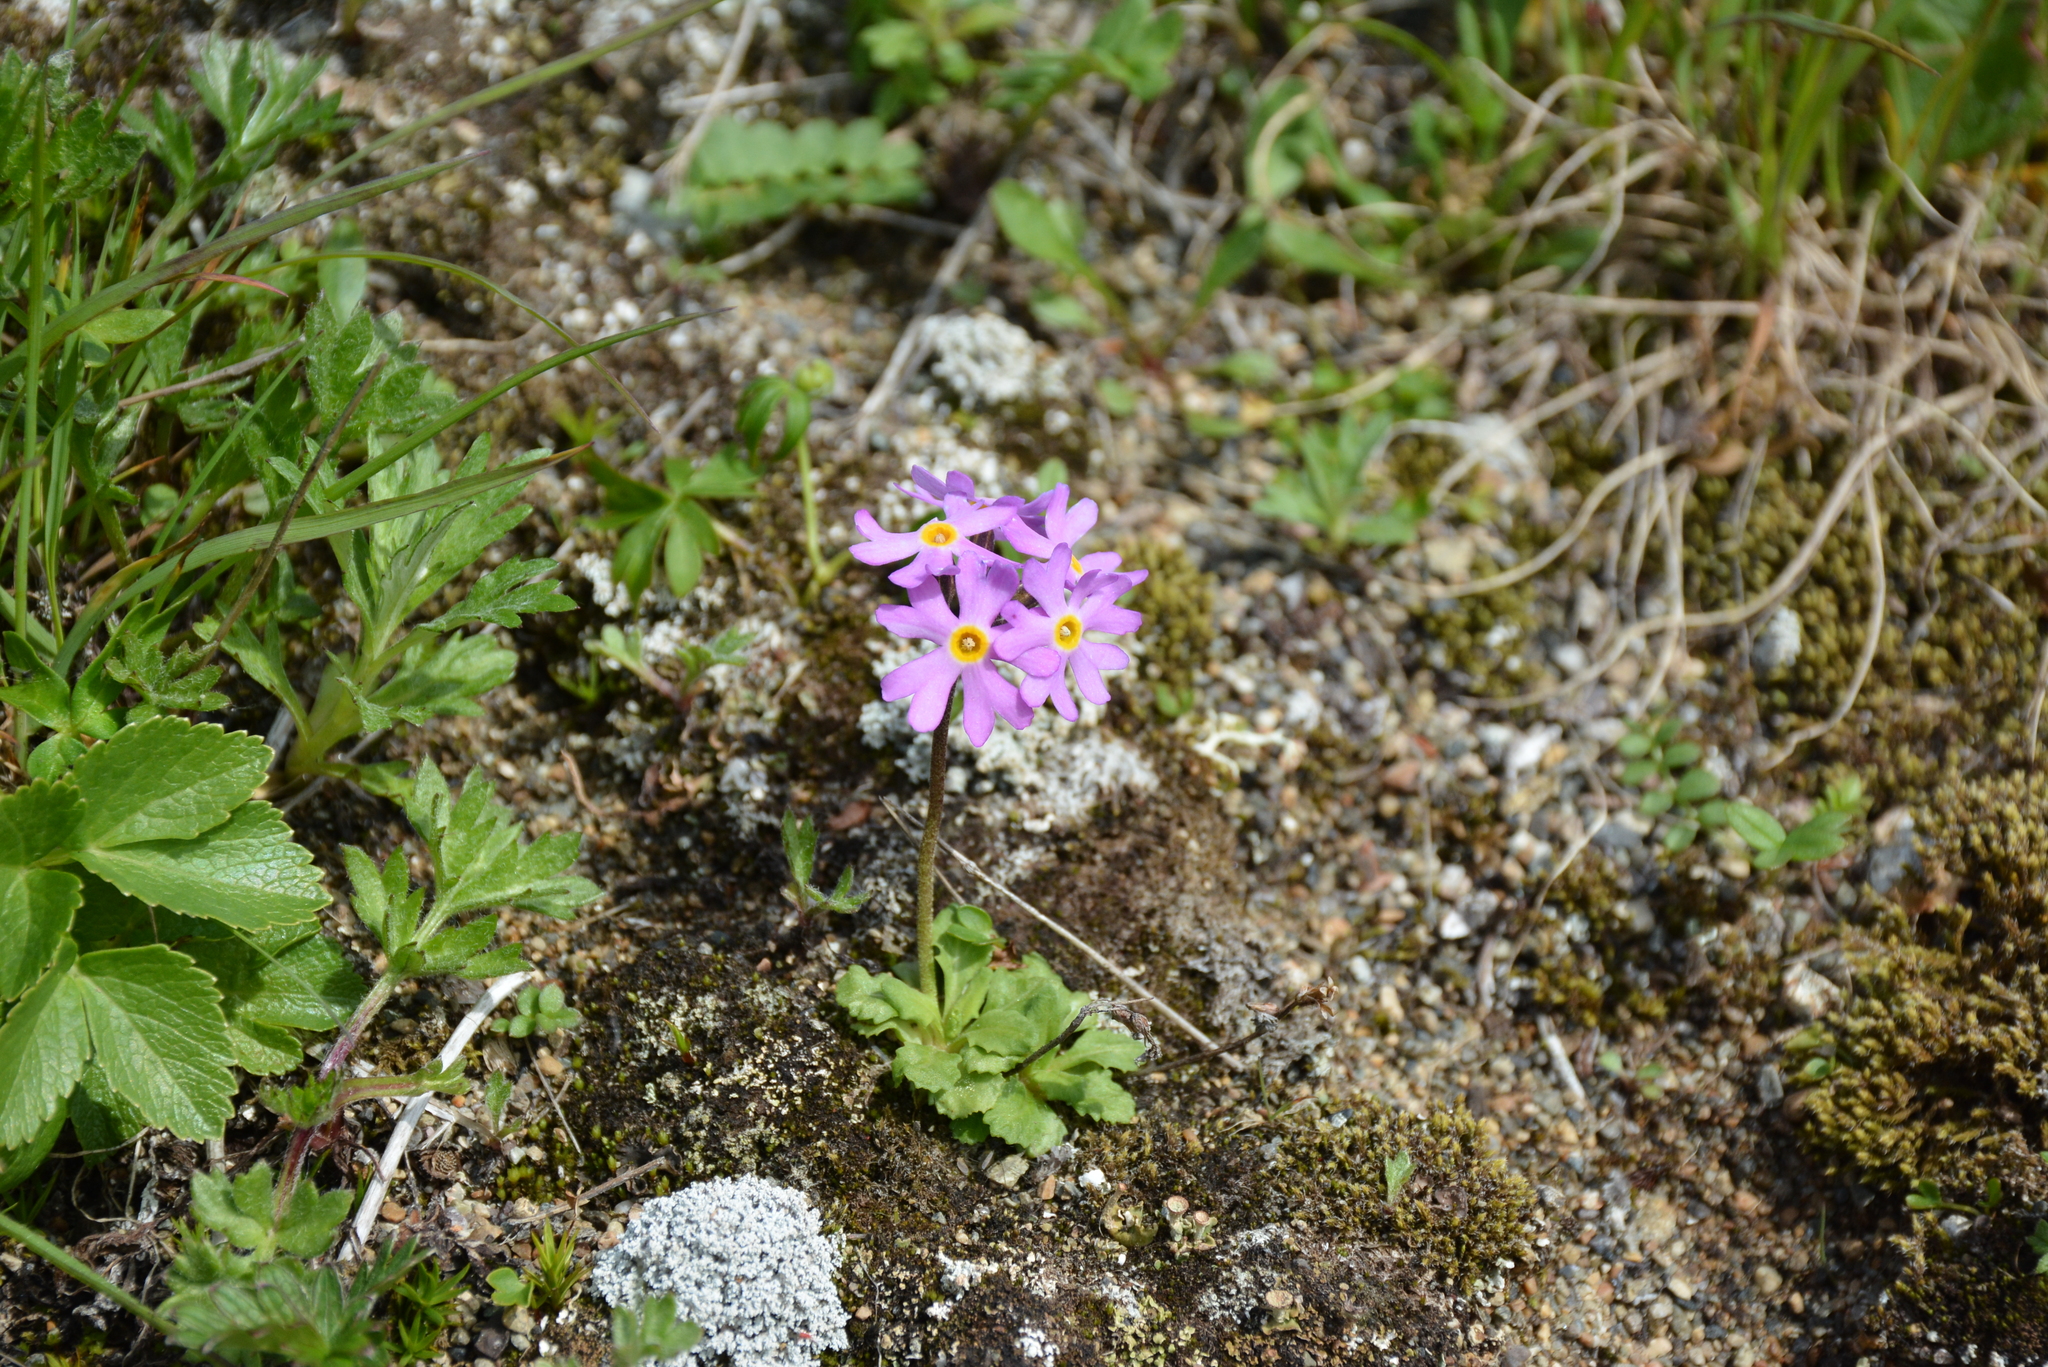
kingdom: Plantae
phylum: Tracheophyta
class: Magnoliopsida
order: Ericales
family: Primulaceae
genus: Primula
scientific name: Primula borealis
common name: Northern primrose
